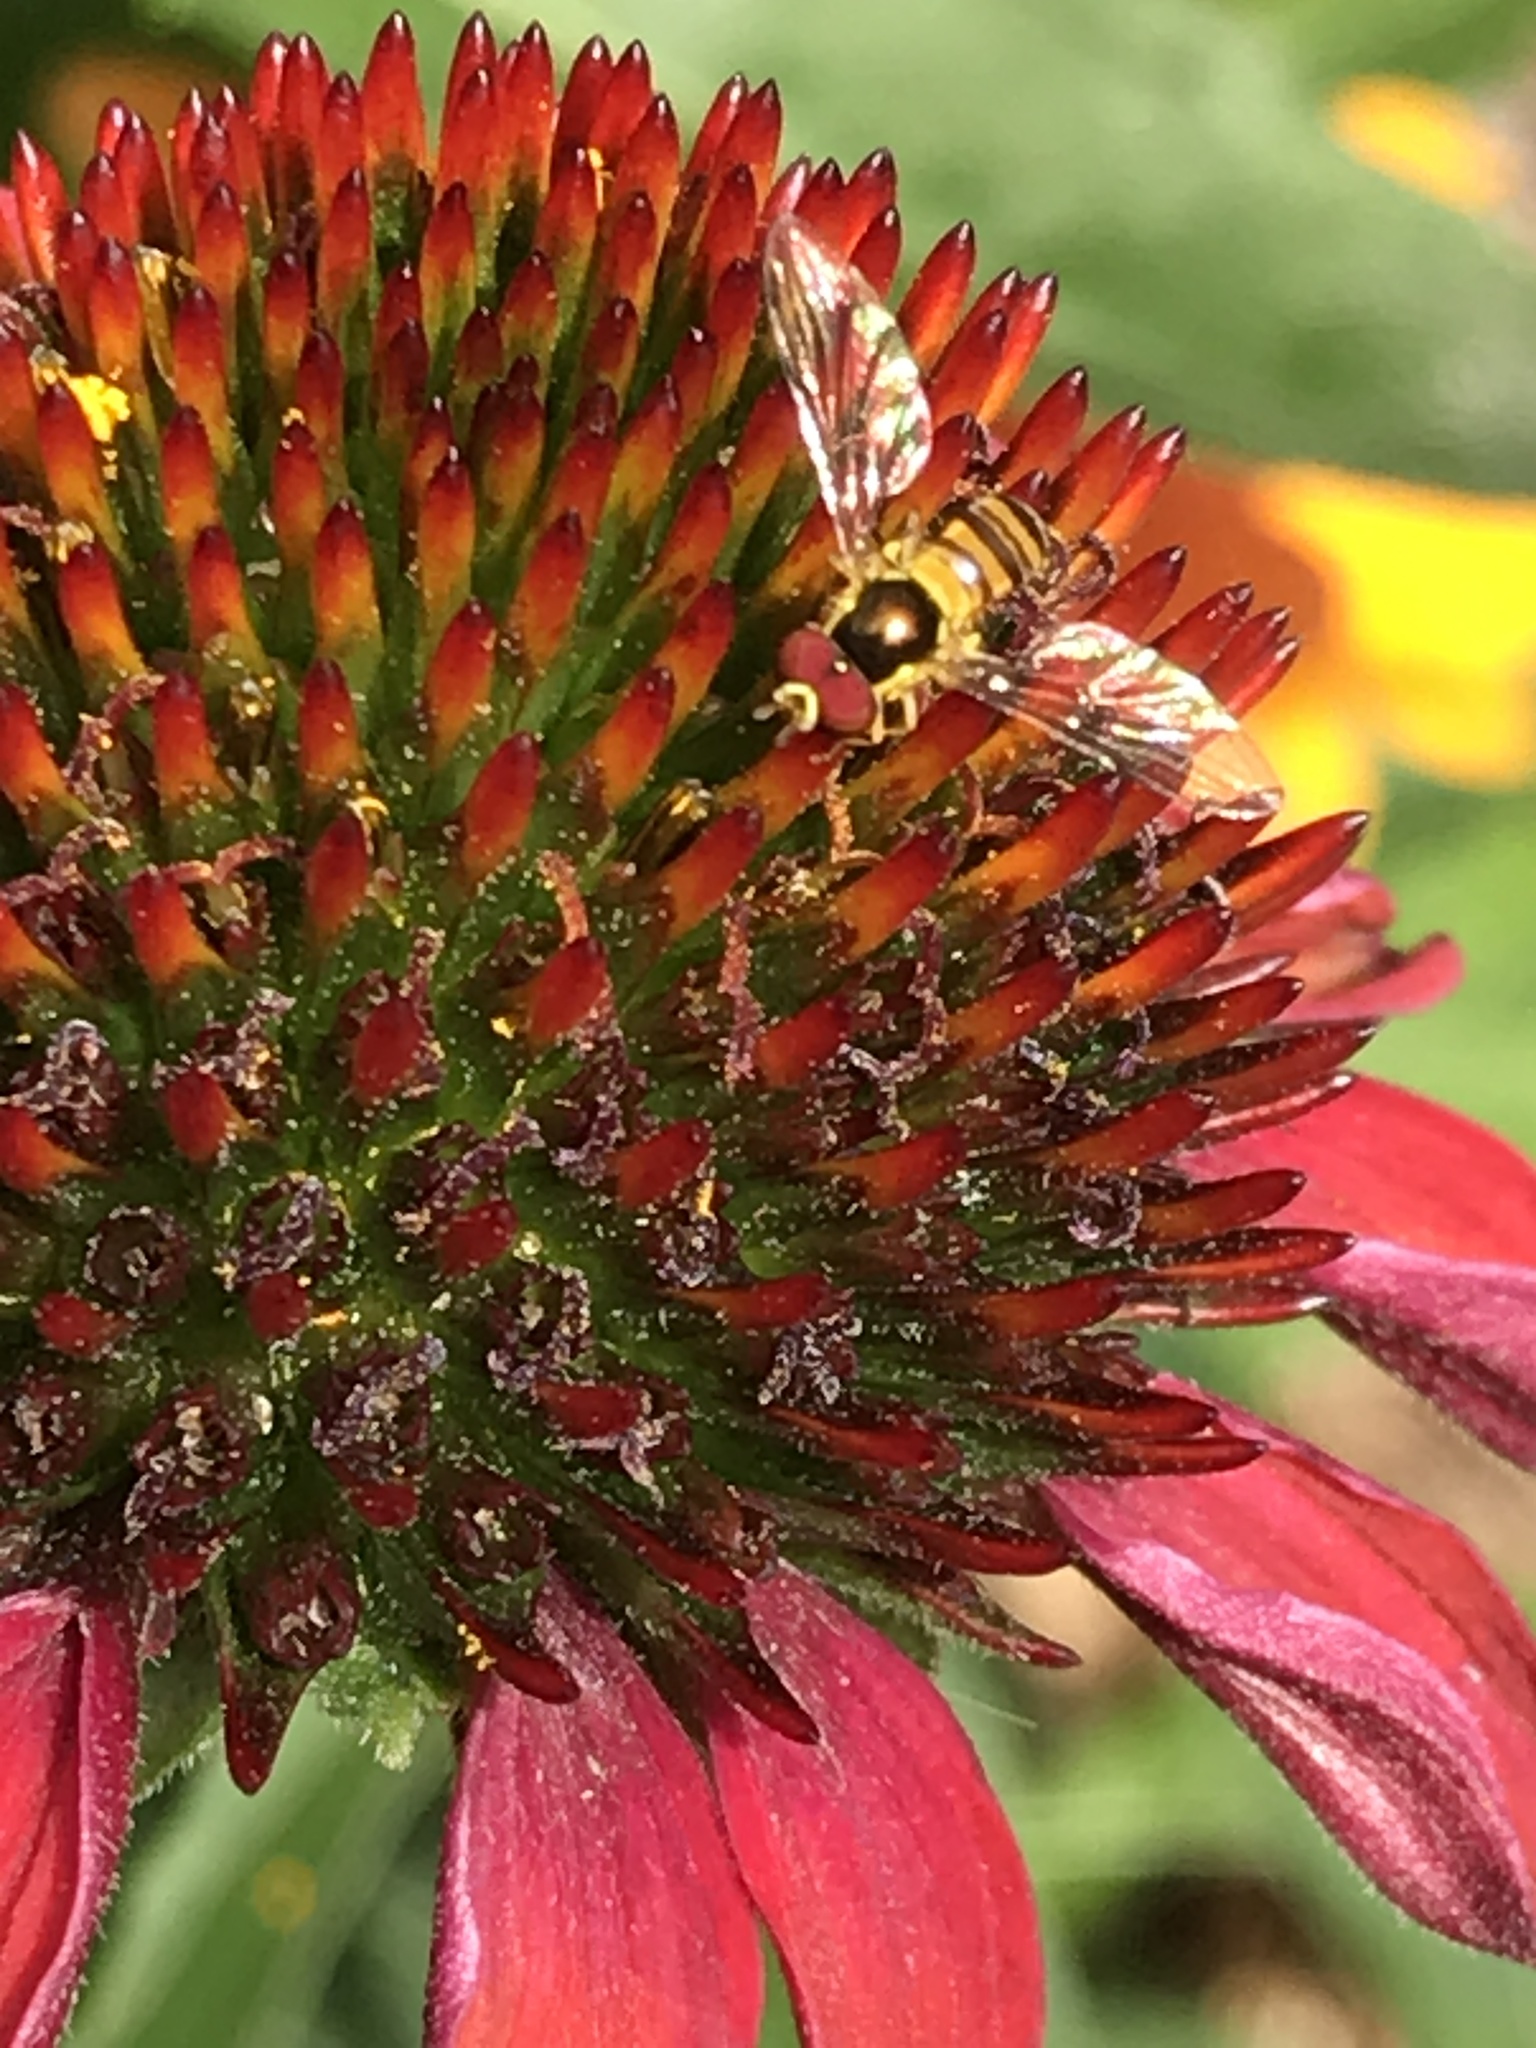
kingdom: Animalia
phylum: Arthropoda
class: Insecta
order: Diptera
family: Syrphidae
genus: Allograpta
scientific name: Allograpta
